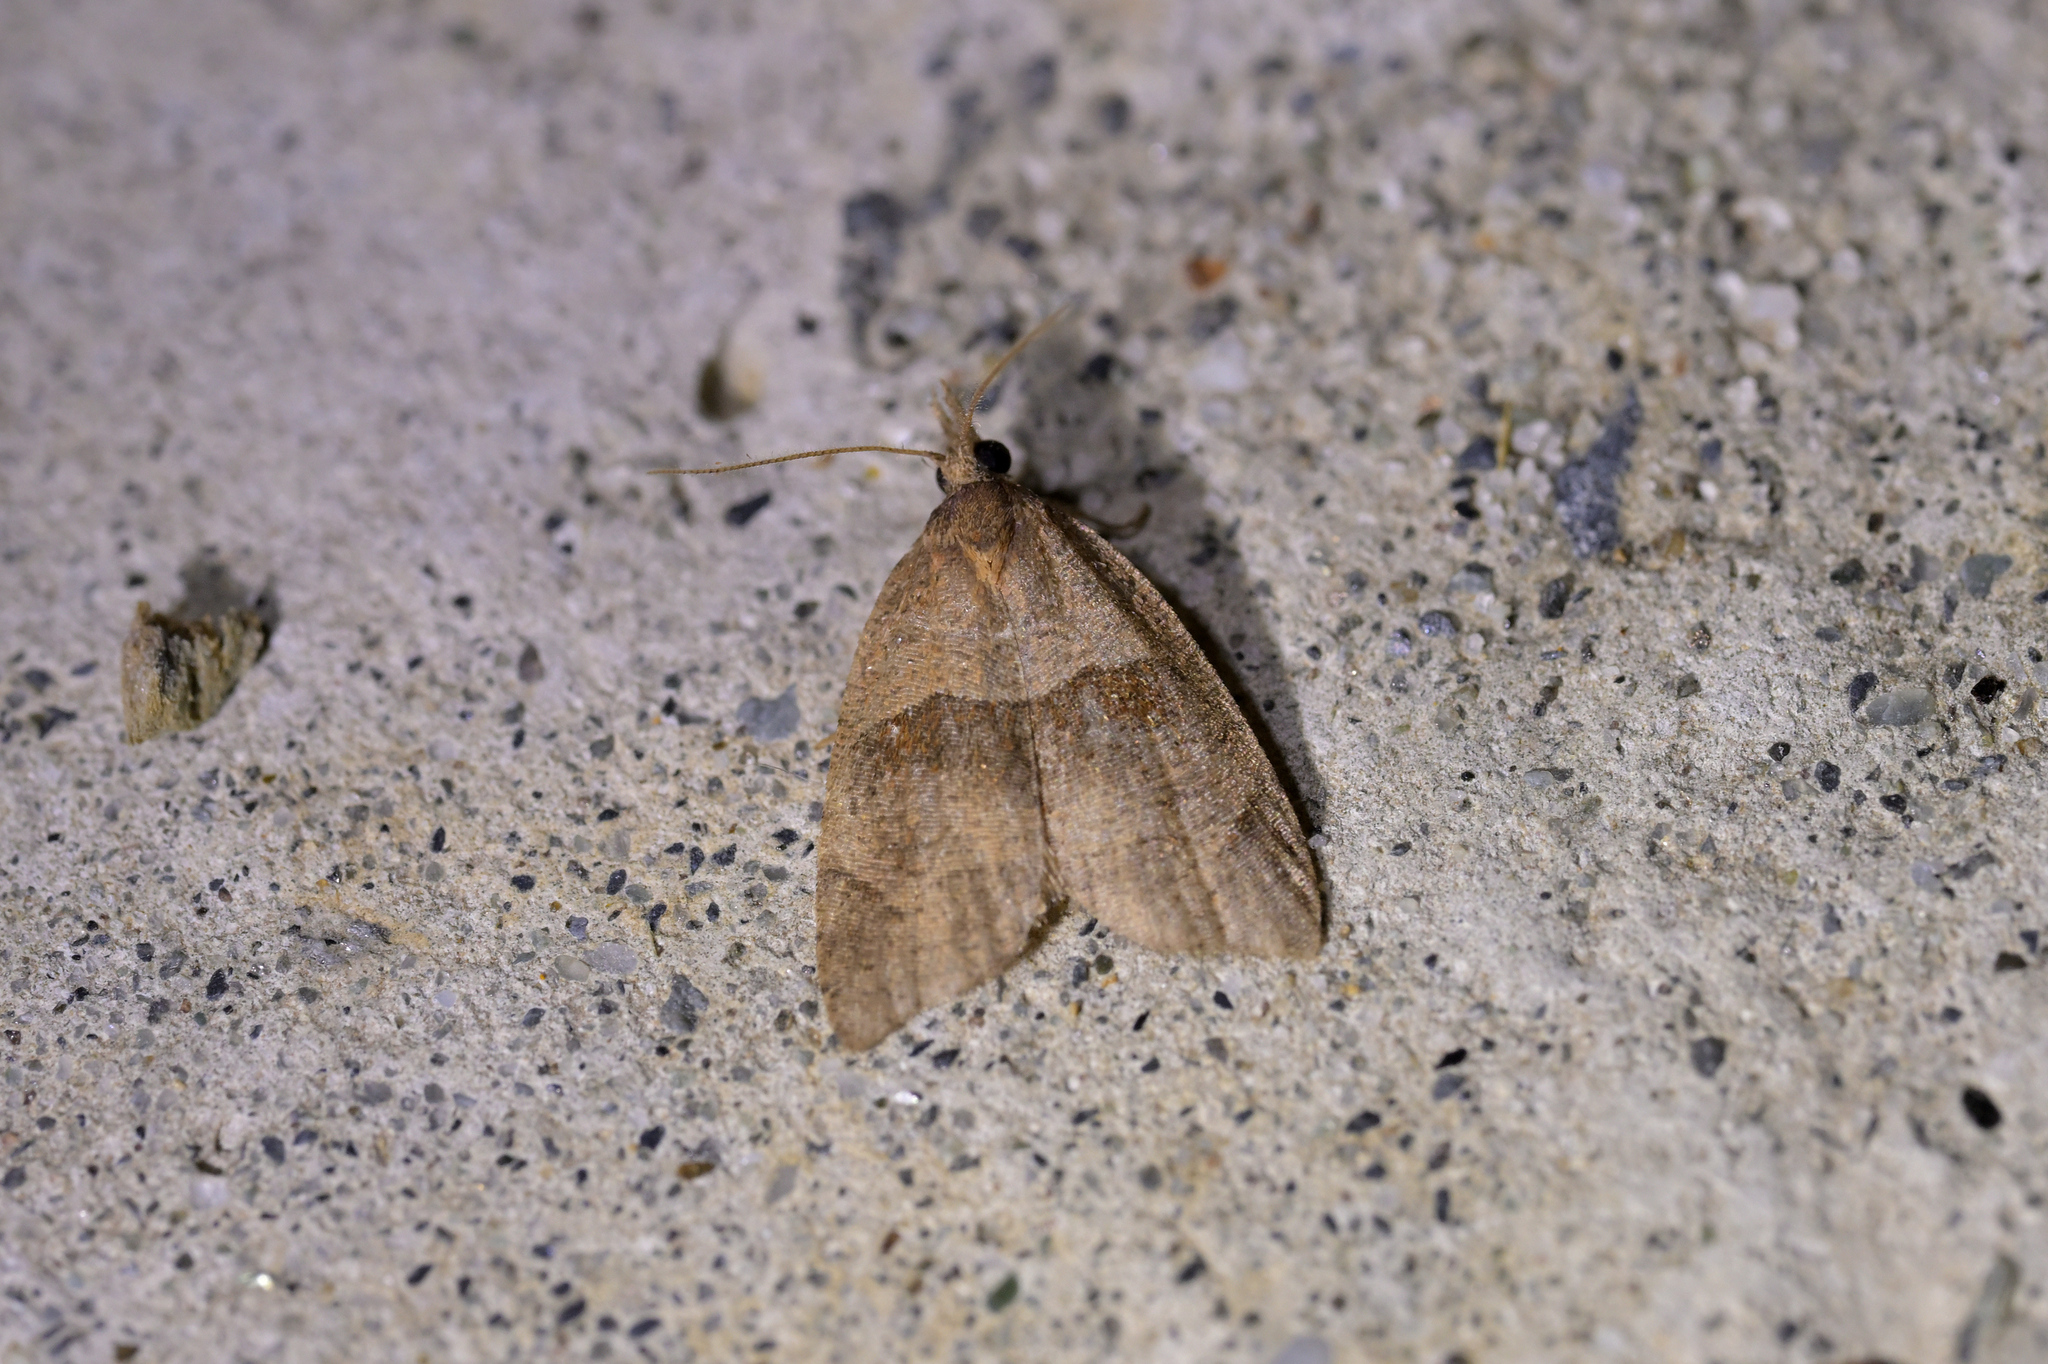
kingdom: Animalia
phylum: Arthropoda
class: Insecta
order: Lepidoptera
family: Tortricidae
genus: Cnephasia
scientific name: Cnephasia incertana
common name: Light grey tortrix
